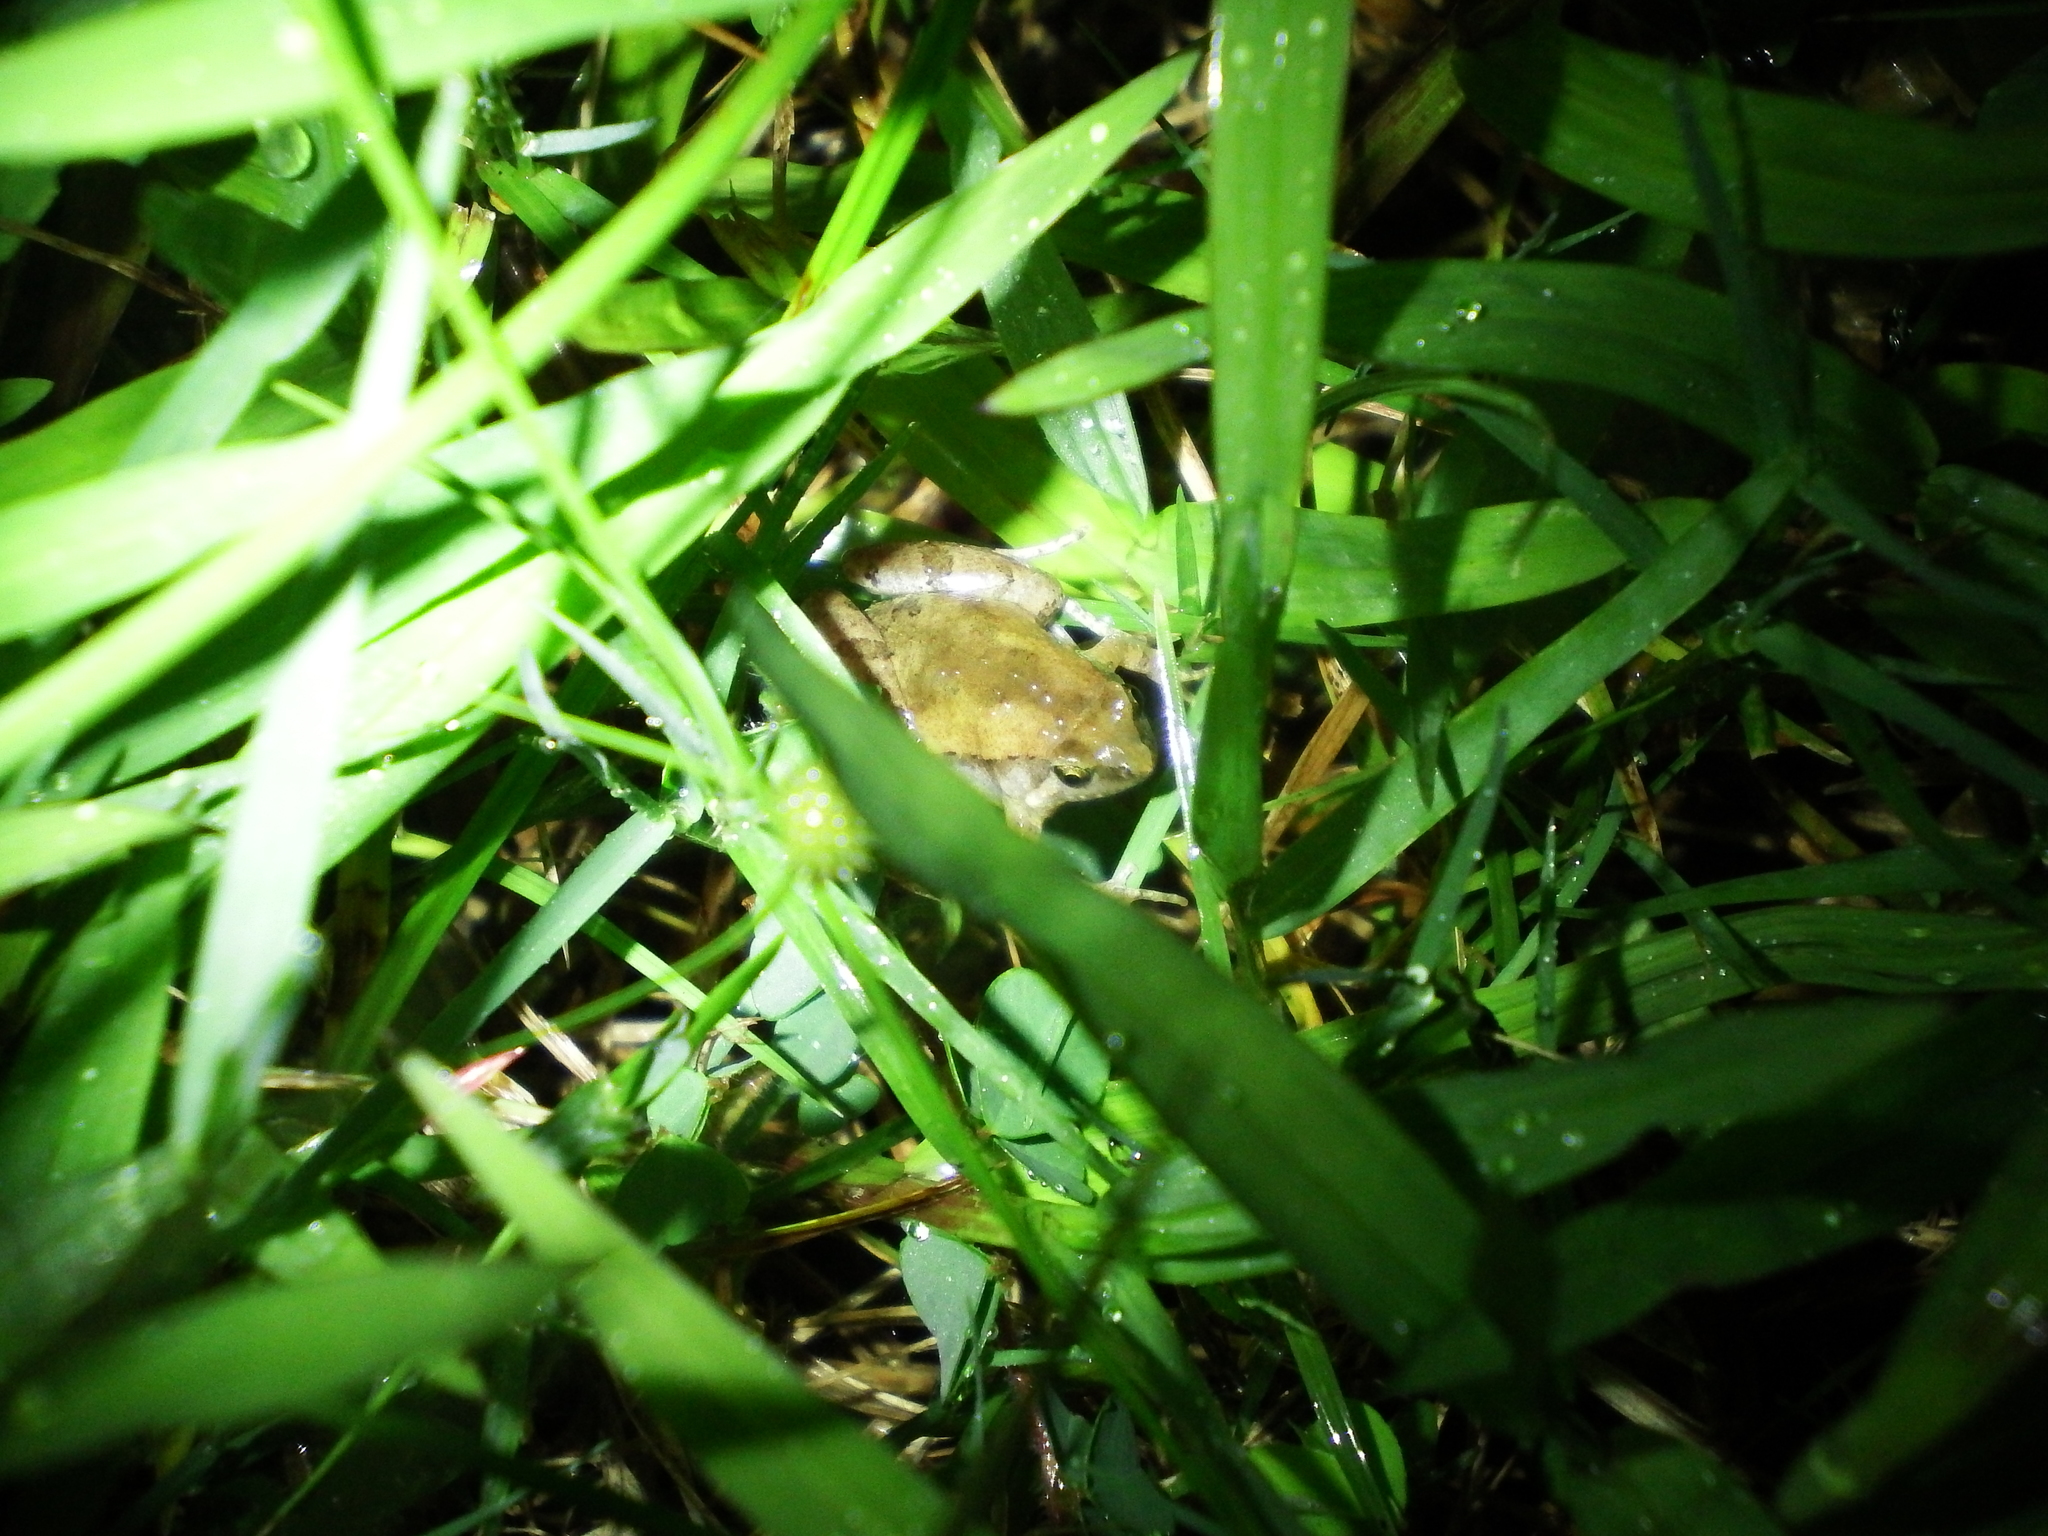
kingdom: Animalia
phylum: Chordata
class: Amphibia
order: Anura
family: Microhylidae
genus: Microhyla
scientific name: Microhyla fissipes
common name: Ornate narrow-mouthed frog
